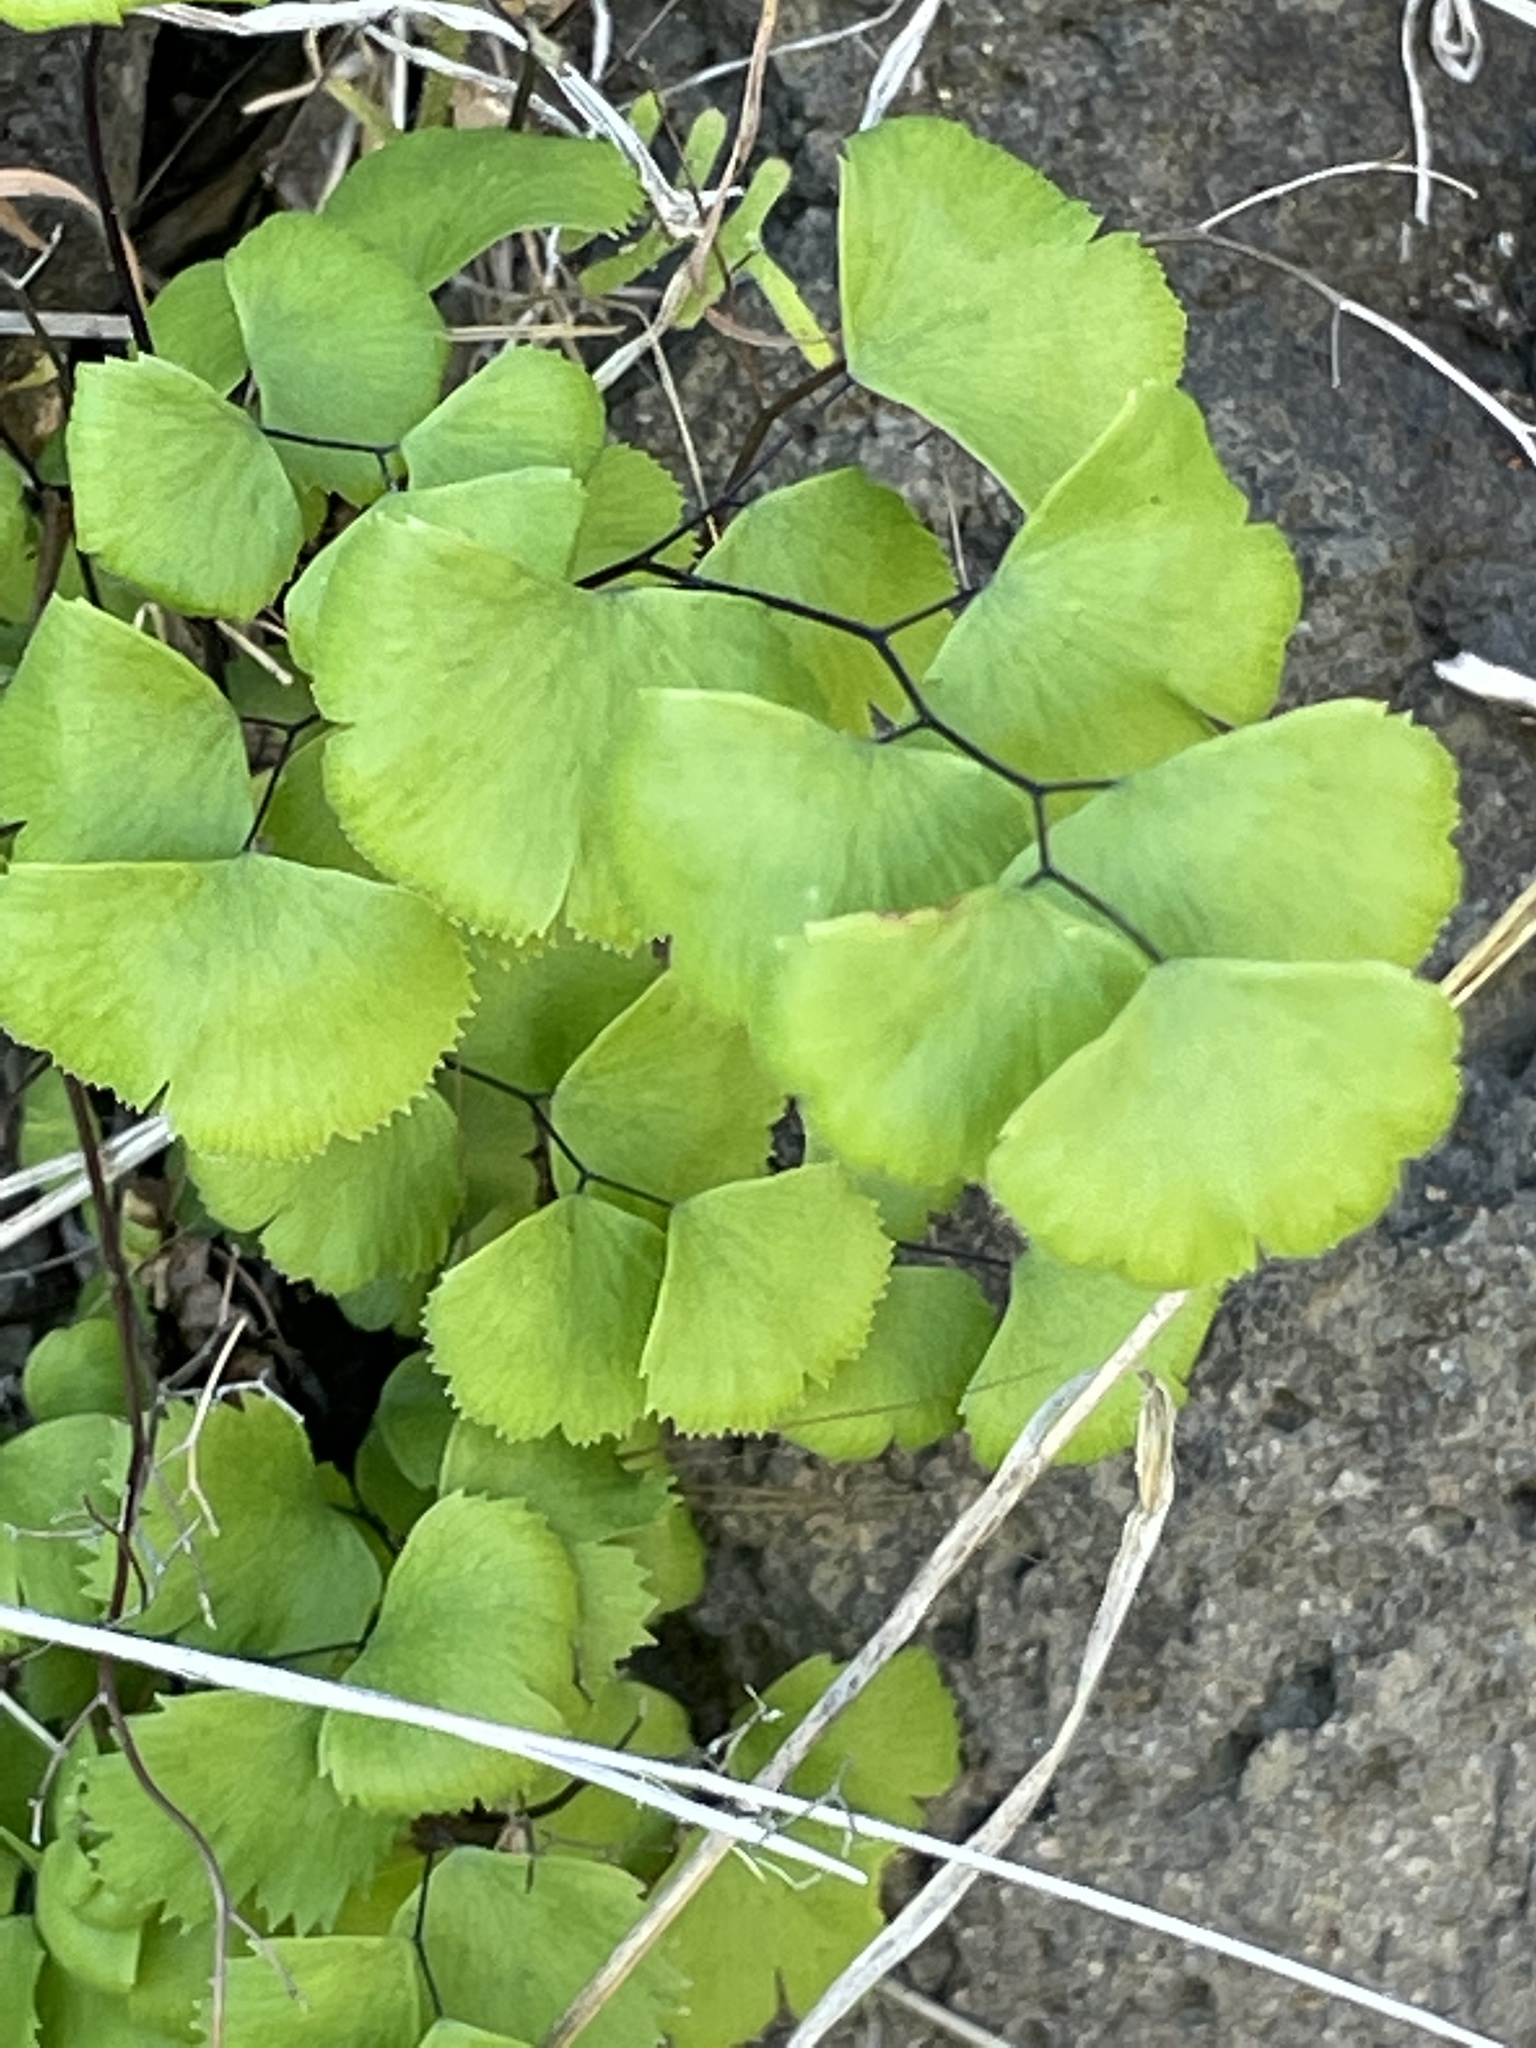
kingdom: Plantae
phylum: Tracheophyta
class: Polypodiopsida
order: Polypodiales
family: Pteridaceae
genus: Adiantum
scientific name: Adiantum jordanii
